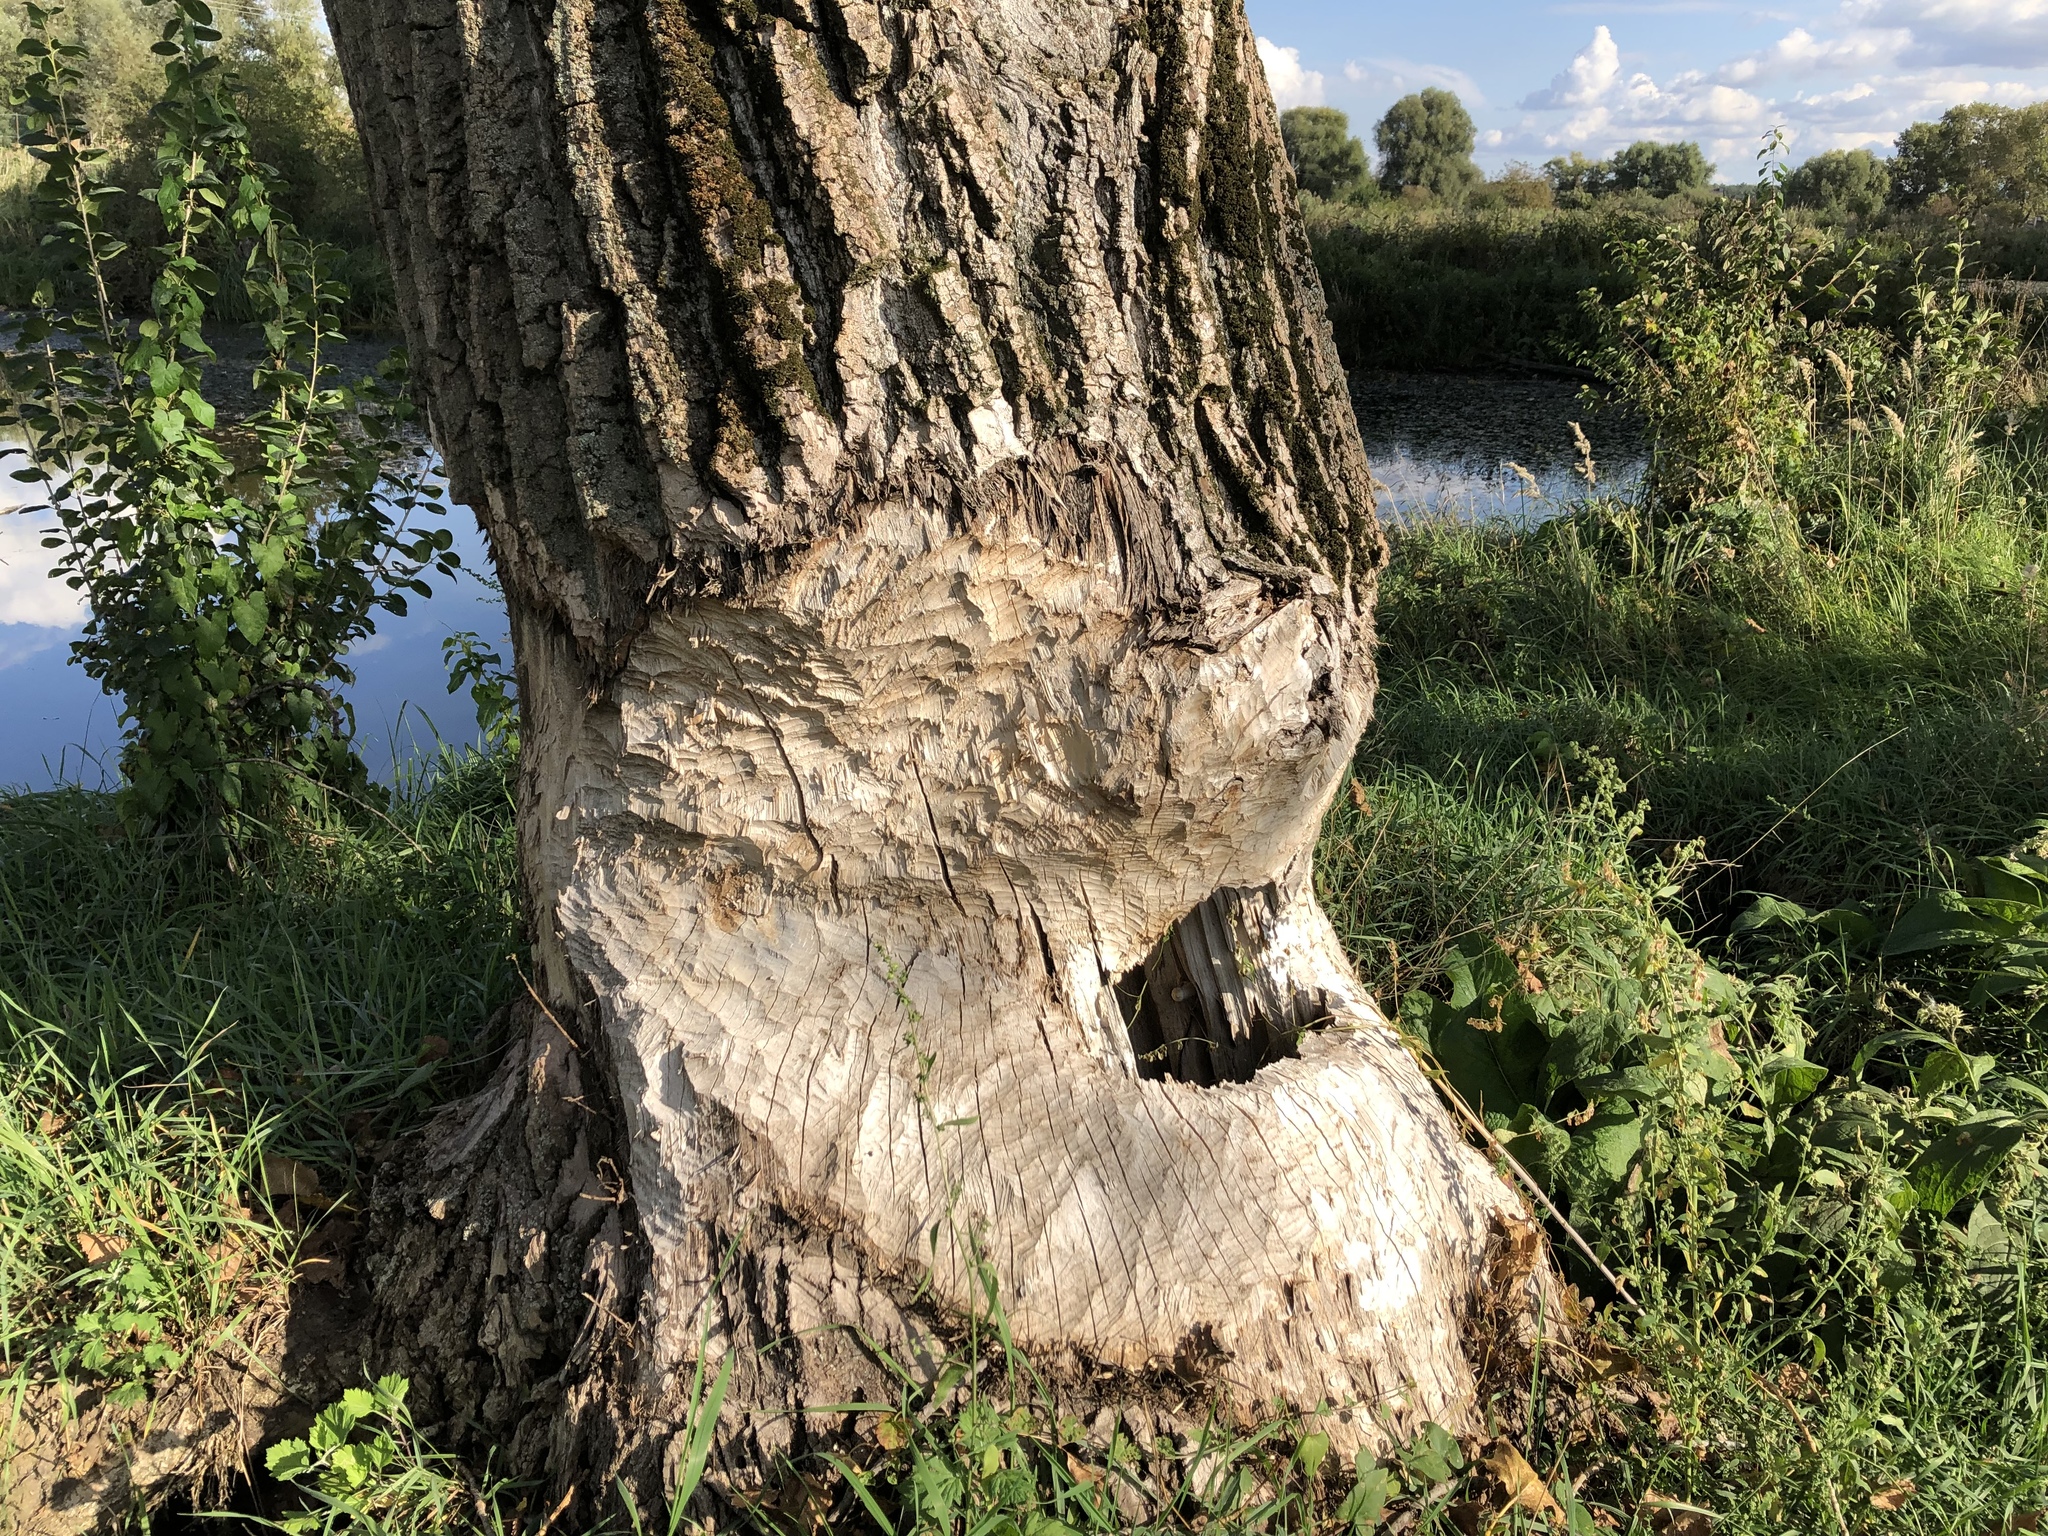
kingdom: Animalia
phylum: Chordata
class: Mammalia
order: Rodentia
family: Castoridae
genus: Castor
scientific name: Castor fiber
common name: Eurasian beaver
